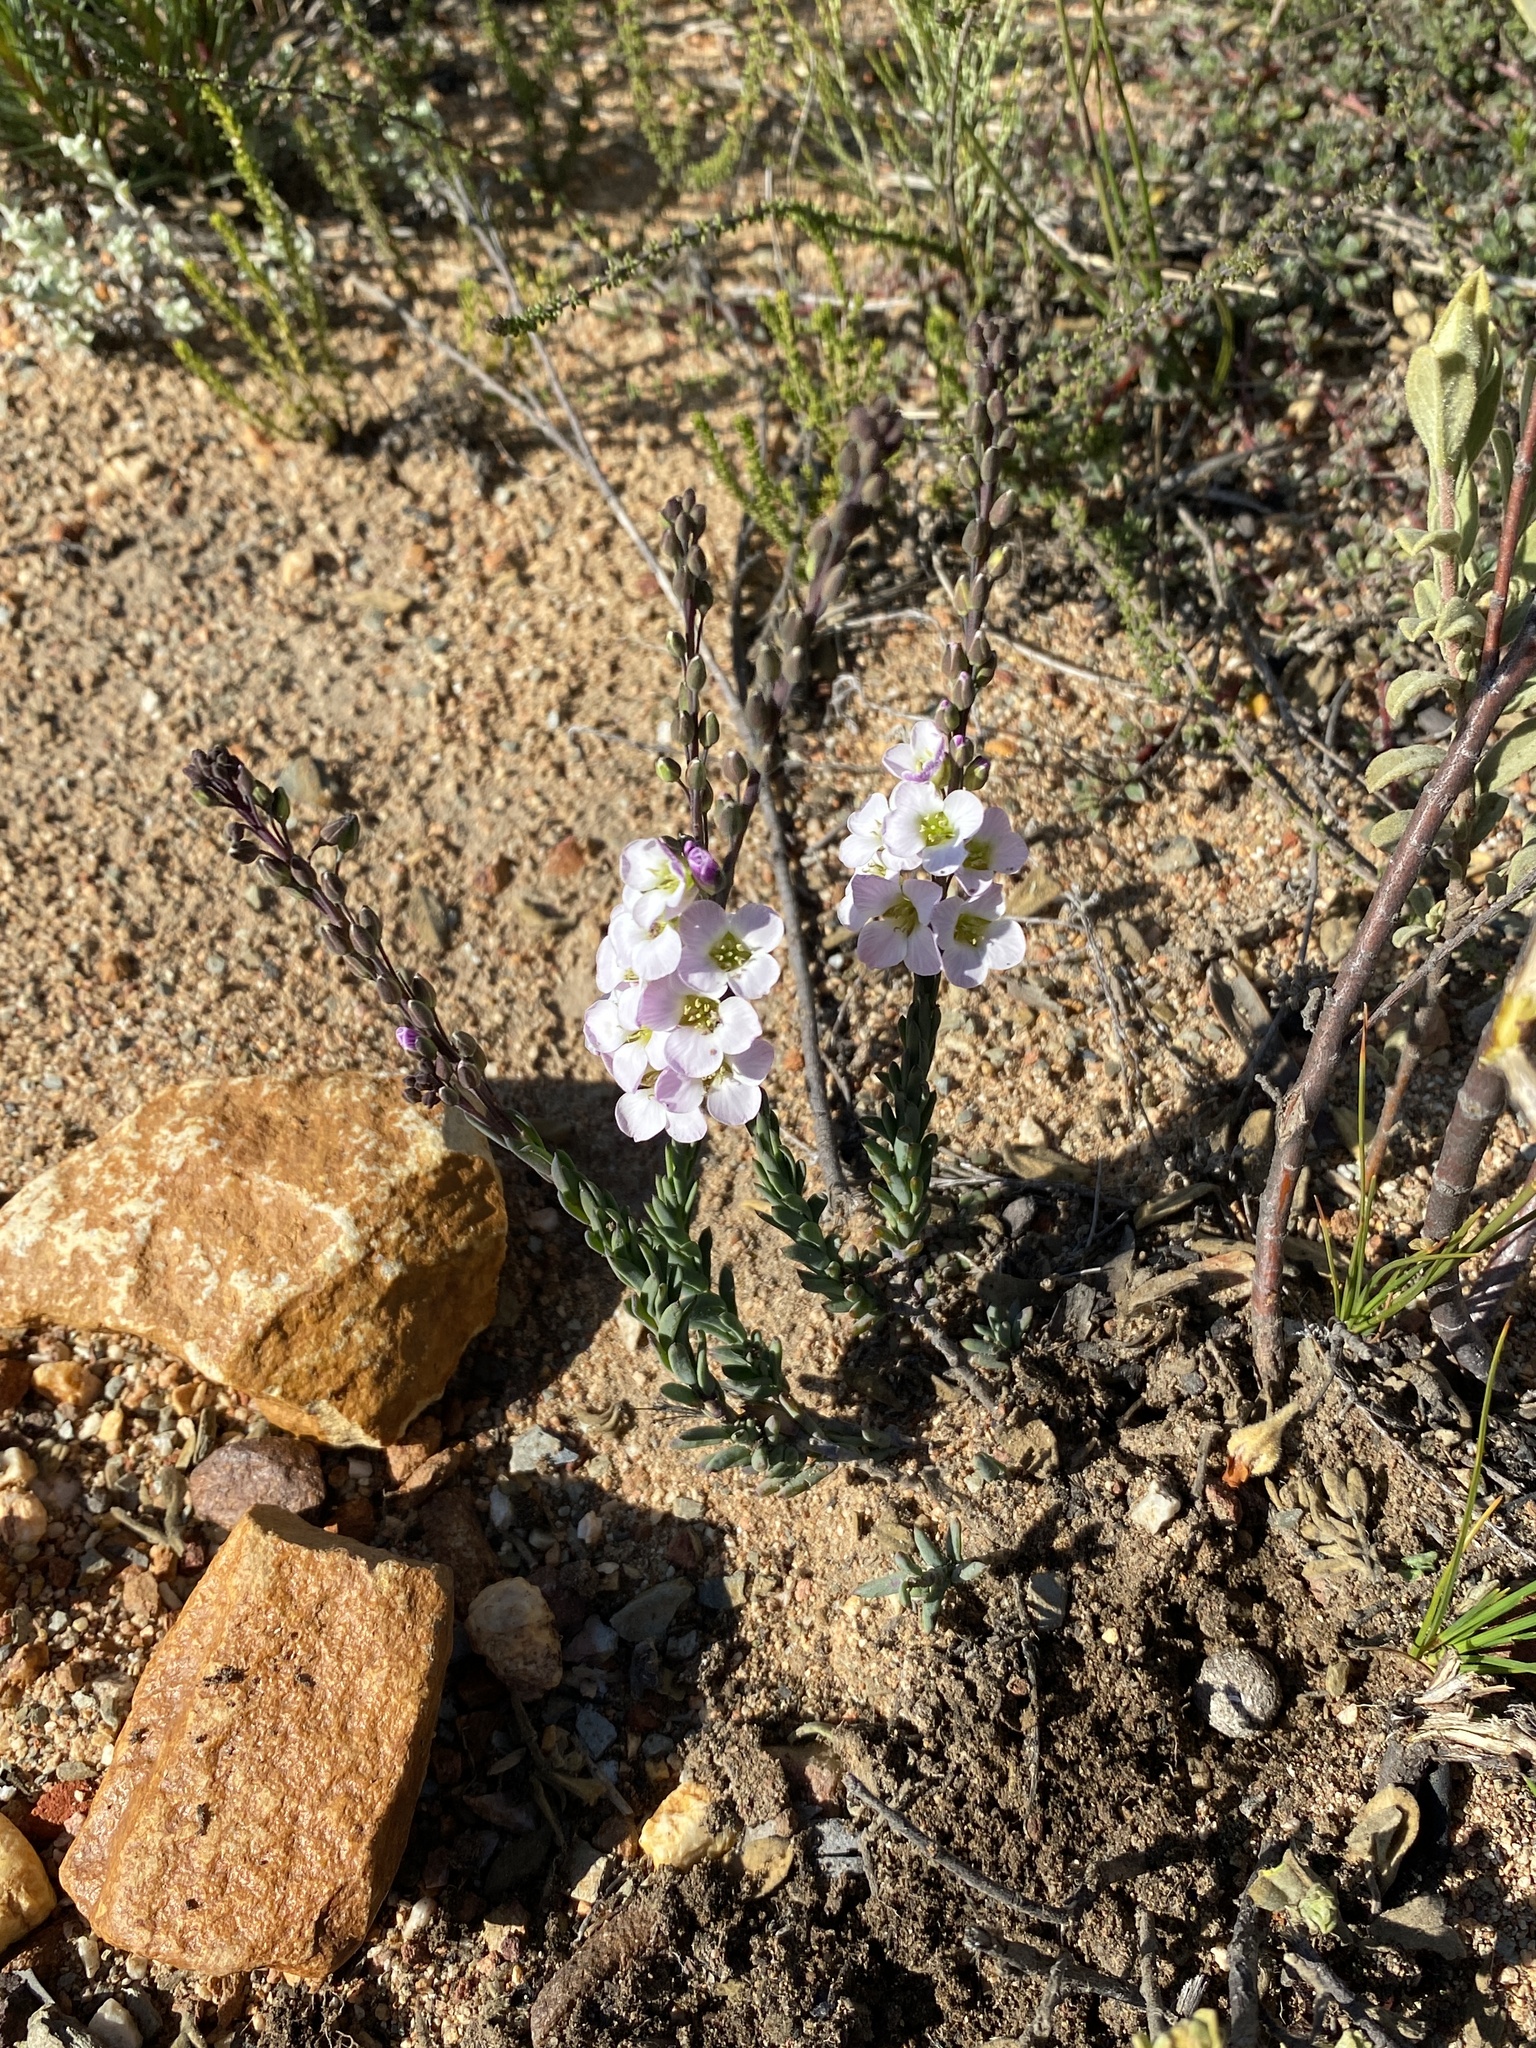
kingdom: Plantae
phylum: Tracheophyta
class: Magnoliopsida
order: Brassicales
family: Brassicaceae
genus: Heliophila
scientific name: Heliophila glauca
